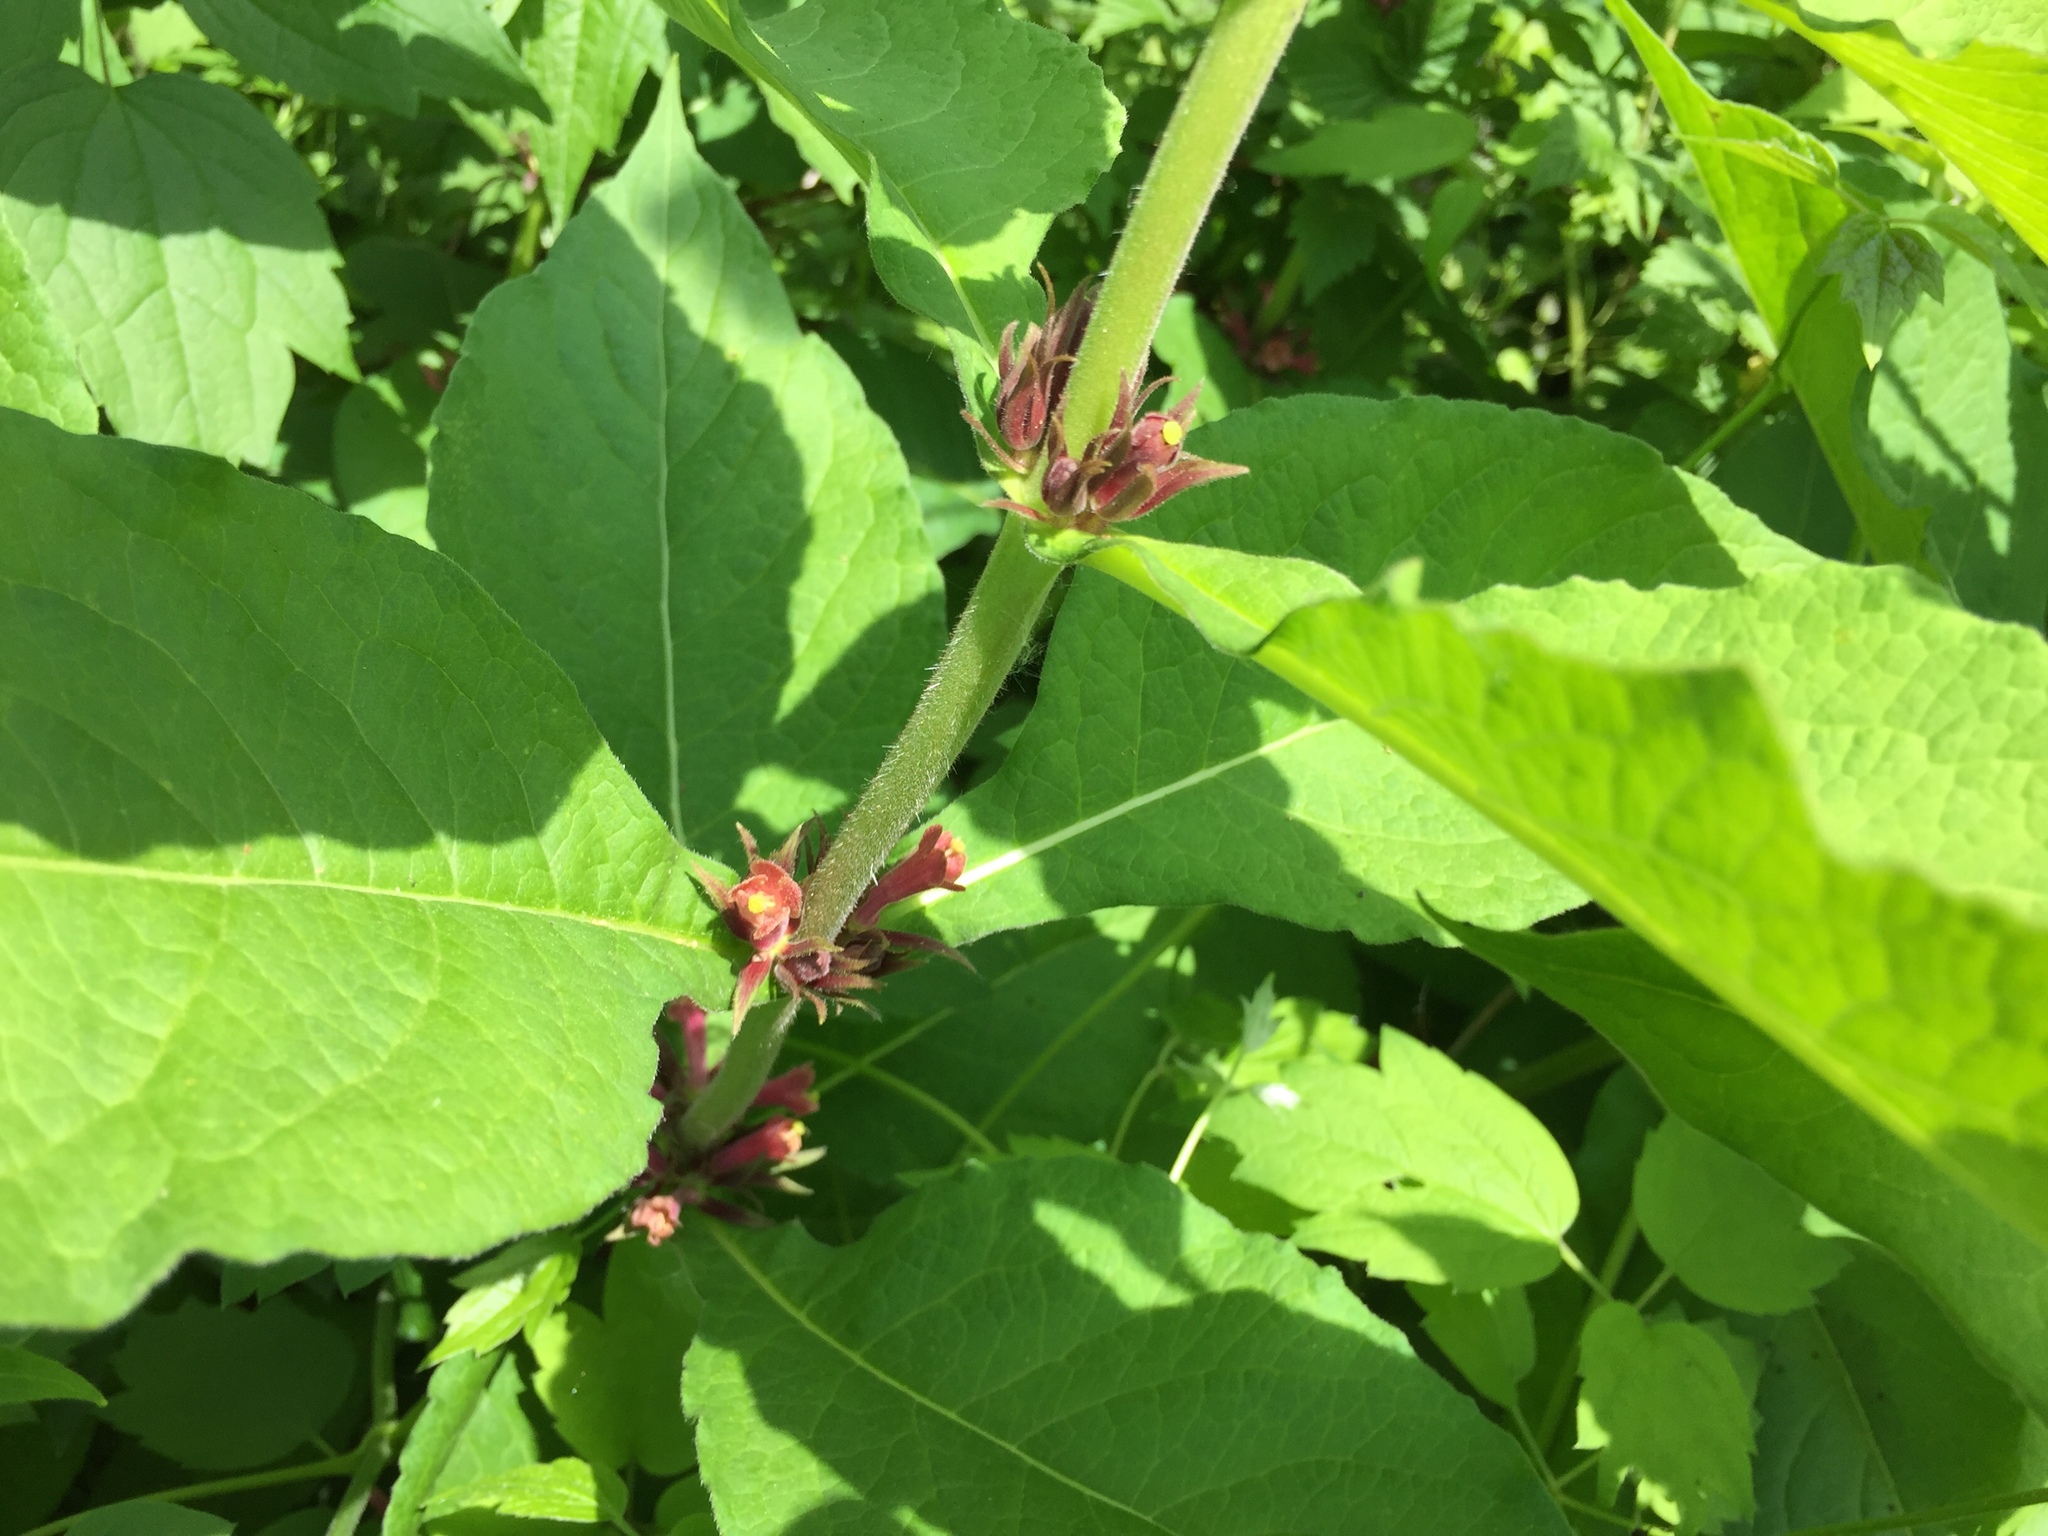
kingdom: Plantae
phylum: Tracheophyta
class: Magnoliopsida
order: Dipsacales
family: Caprifoliaceae
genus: Triosteum
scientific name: Triosteum aurantiacum
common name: Coffee tinker's-weed
